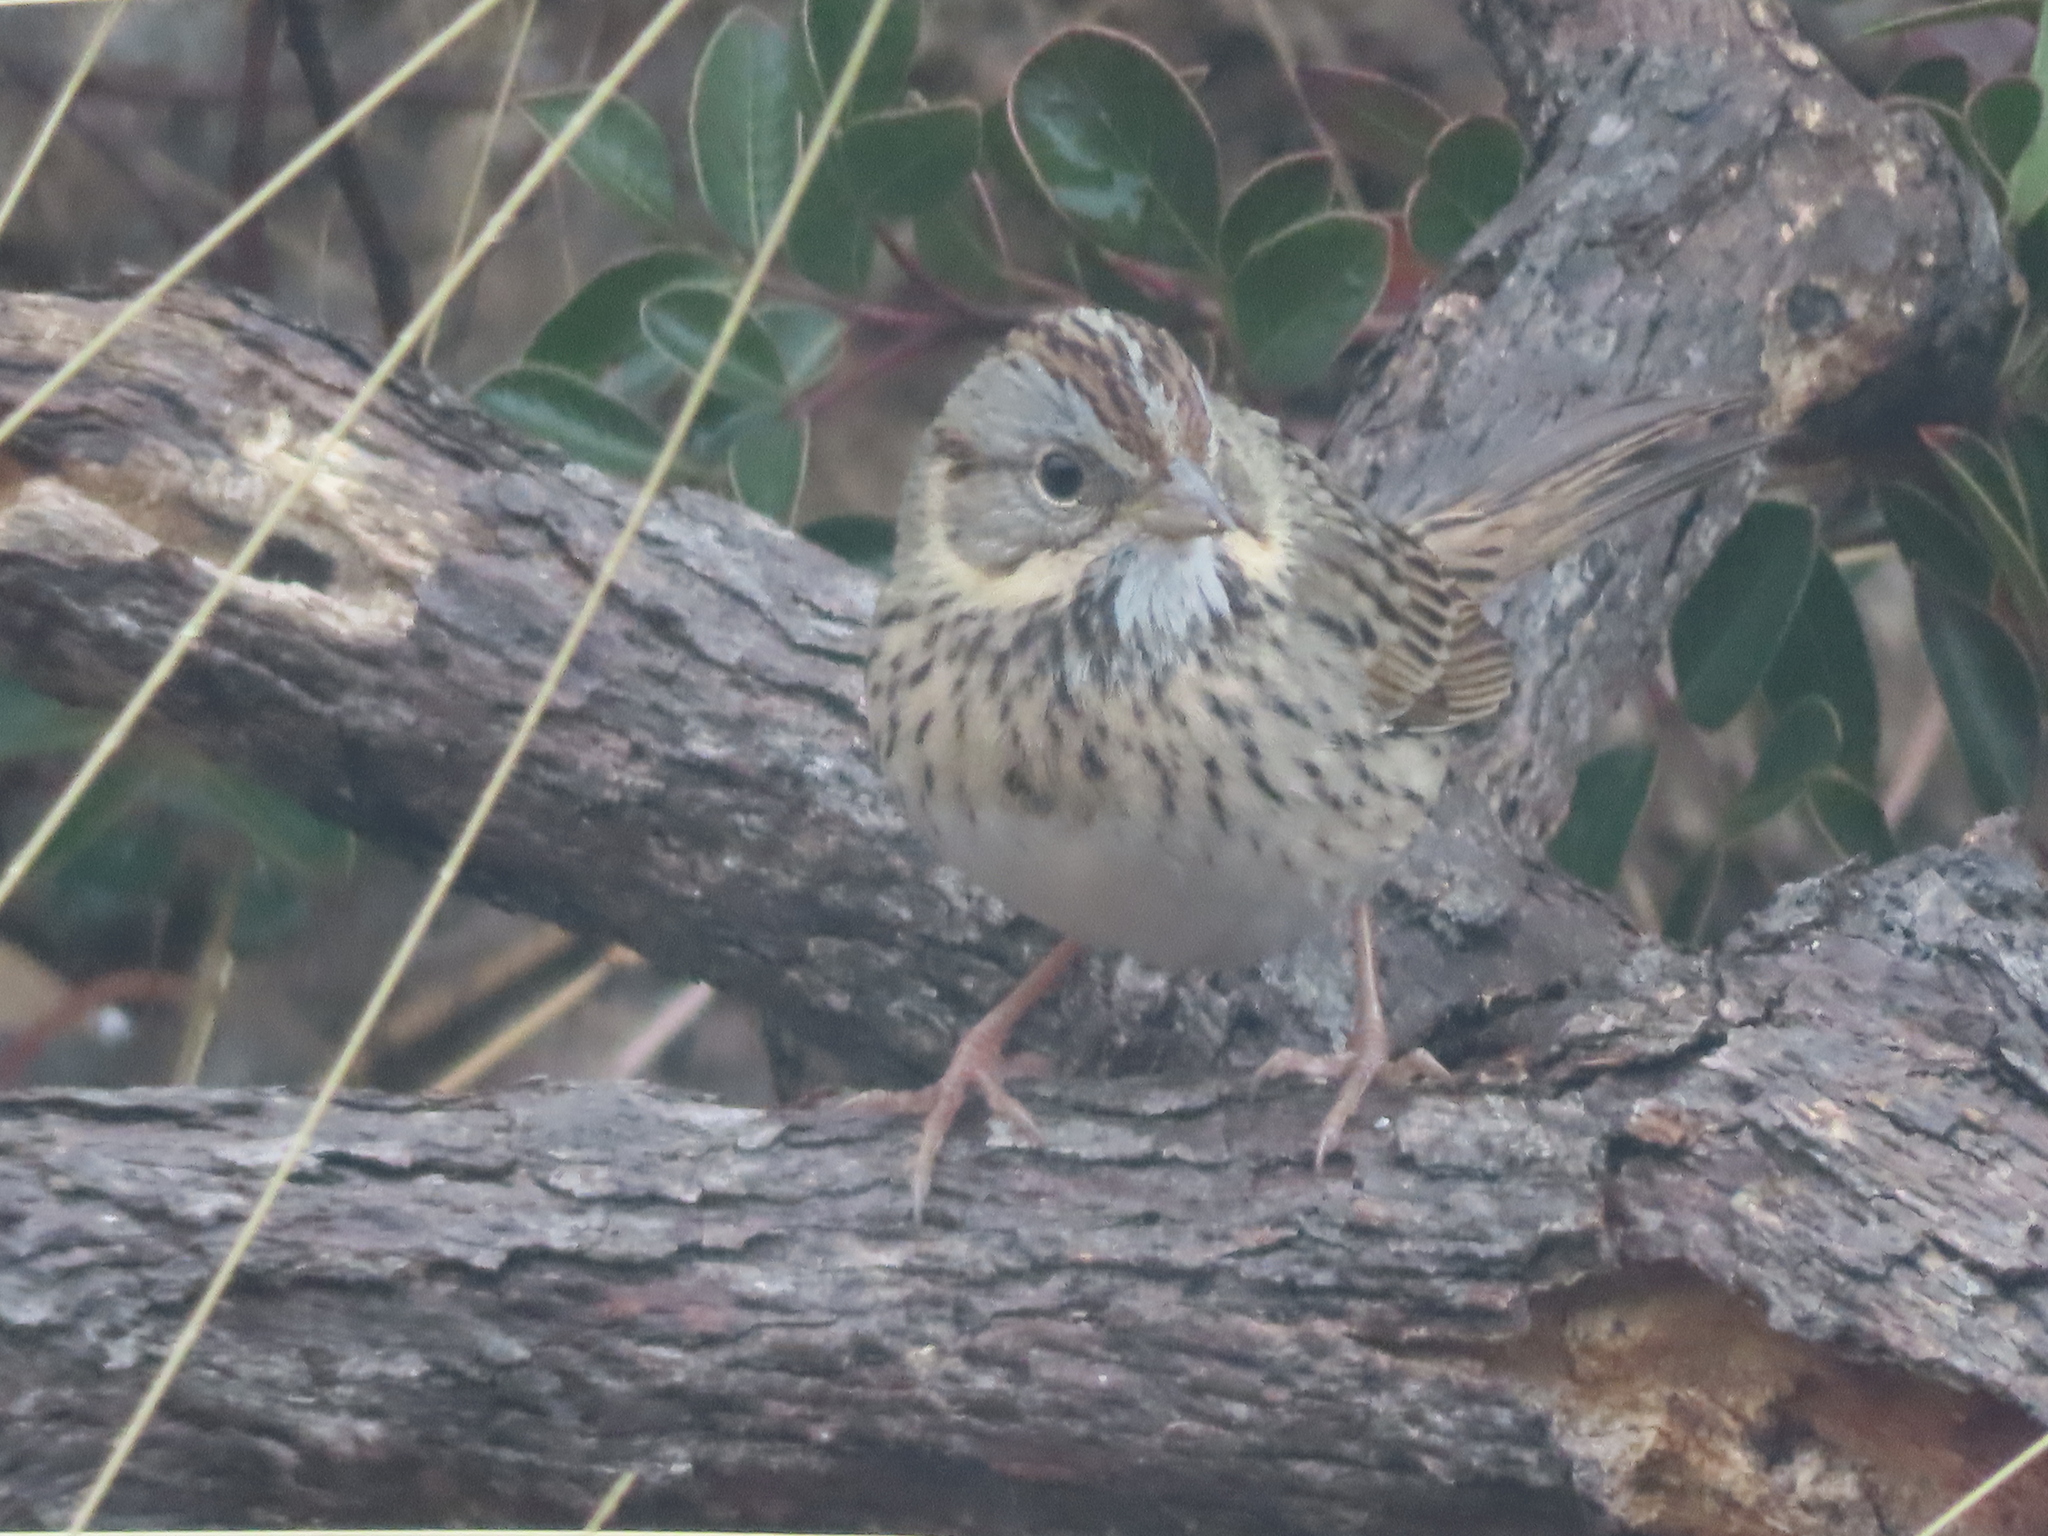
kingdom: Animalia
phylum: Chordata
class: Aves
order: Passeriformes
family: Passerellidae
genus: Melospiza
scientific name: Melospiza lincolnii
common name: Lincoln's sparrow
